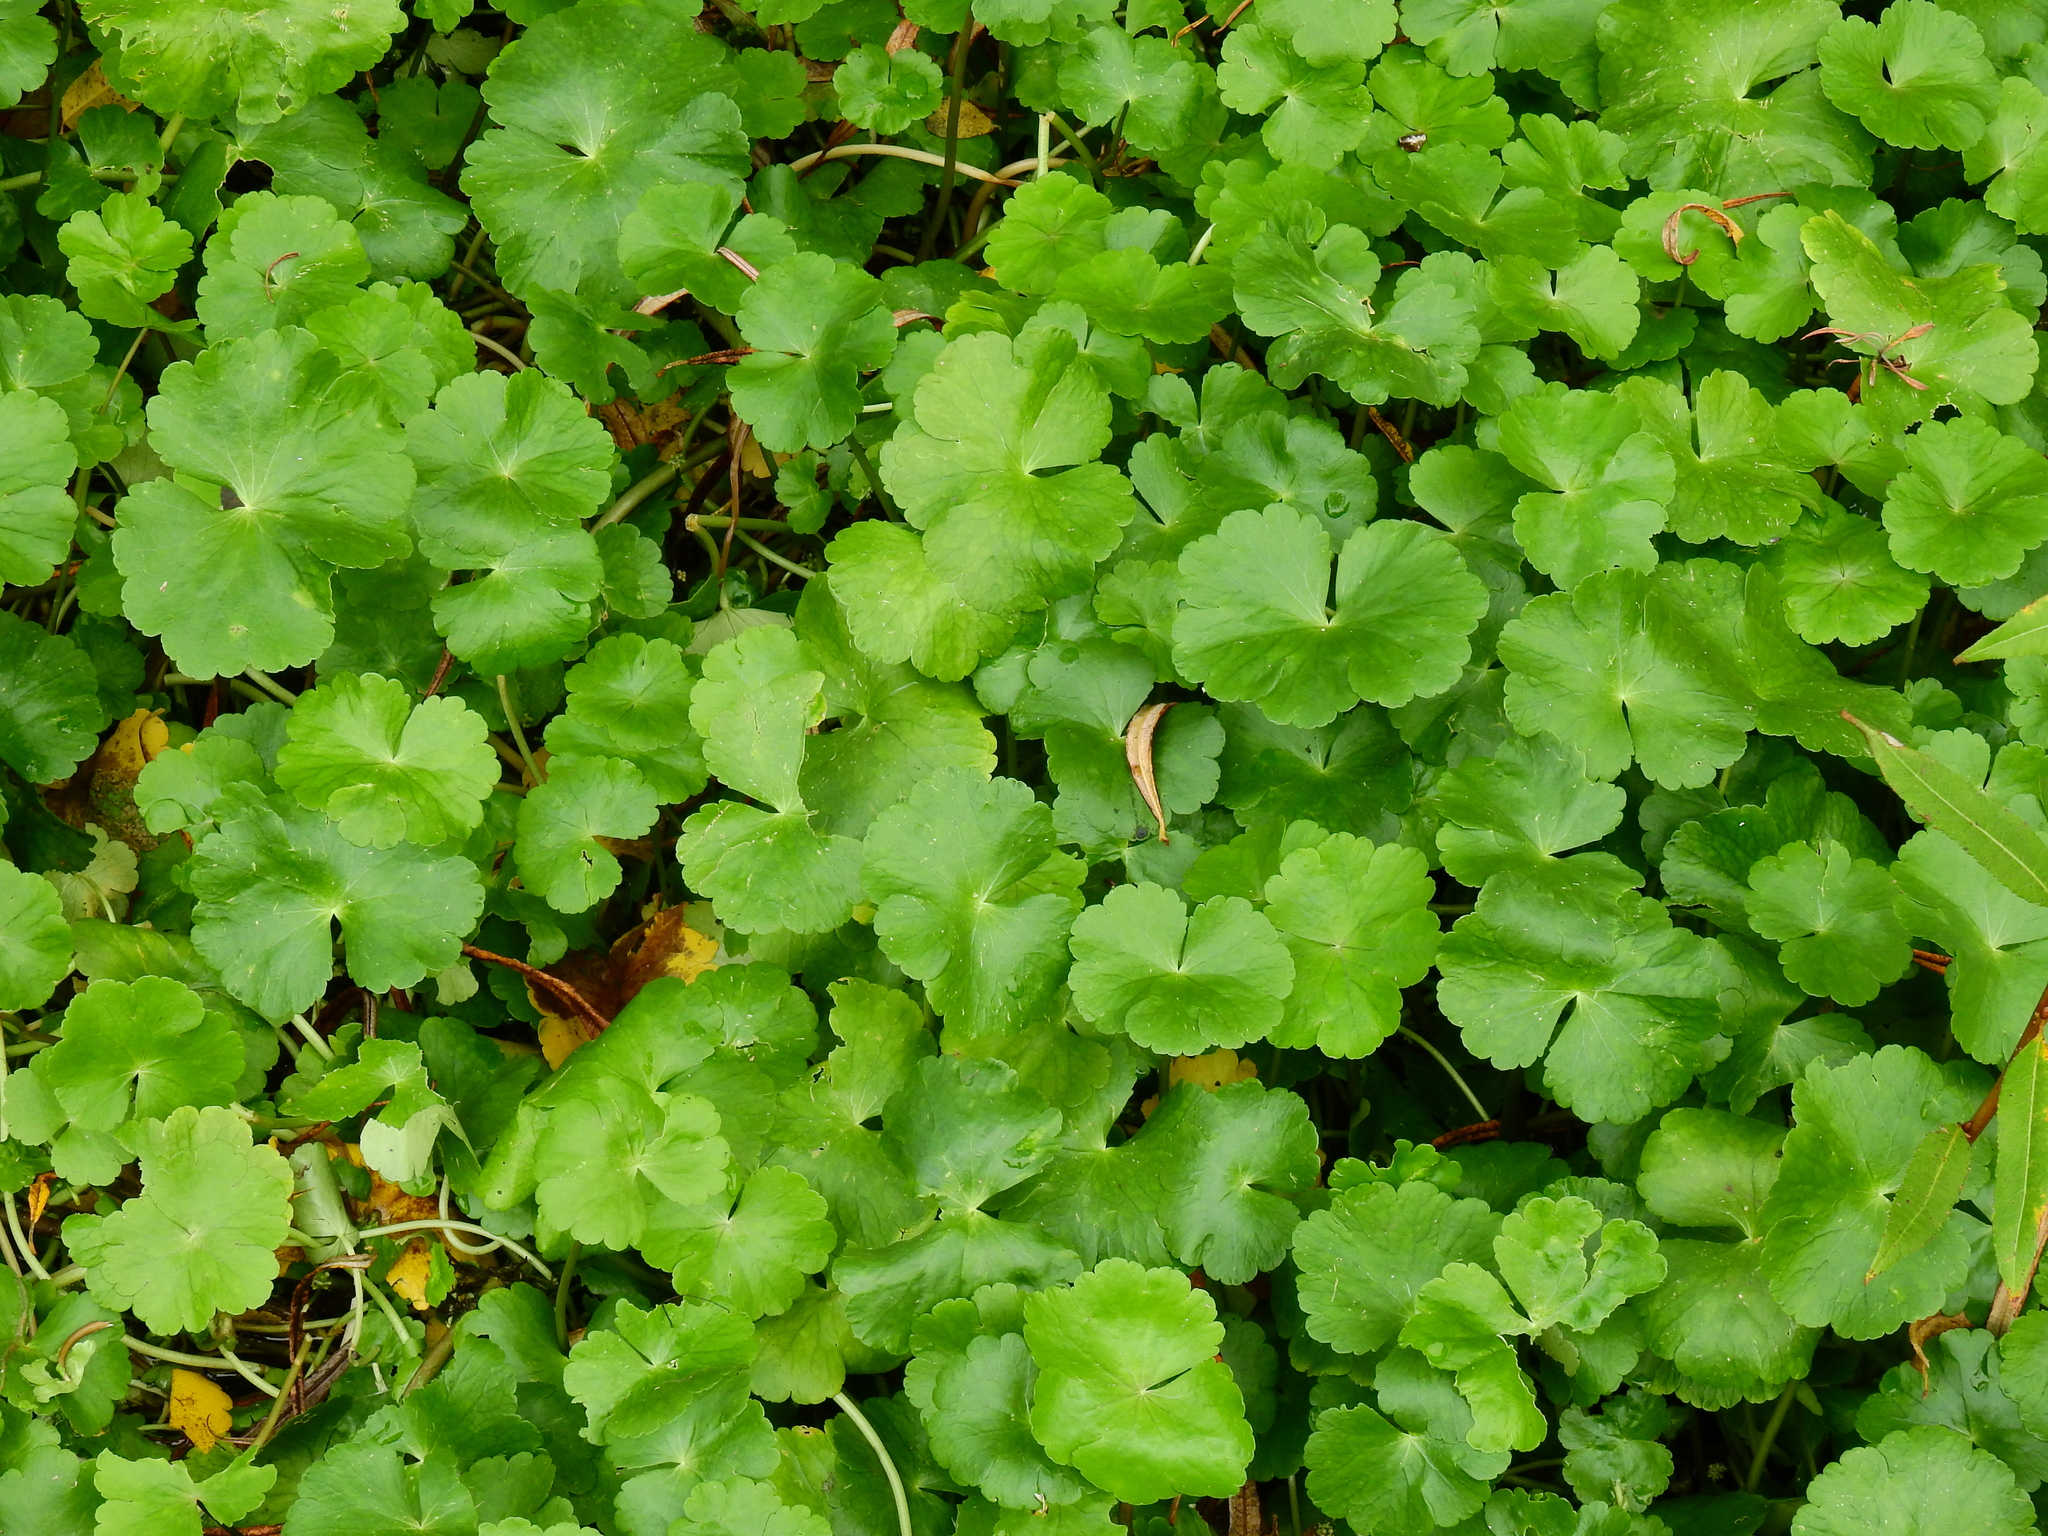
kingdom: Plantae
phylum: Tracheophyta
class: Magnoliopsida
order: Apiales
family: Araliaceae
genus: Hydrocotyle
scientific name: Hydrocotyle ranunculoides
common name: Floating pennywort
